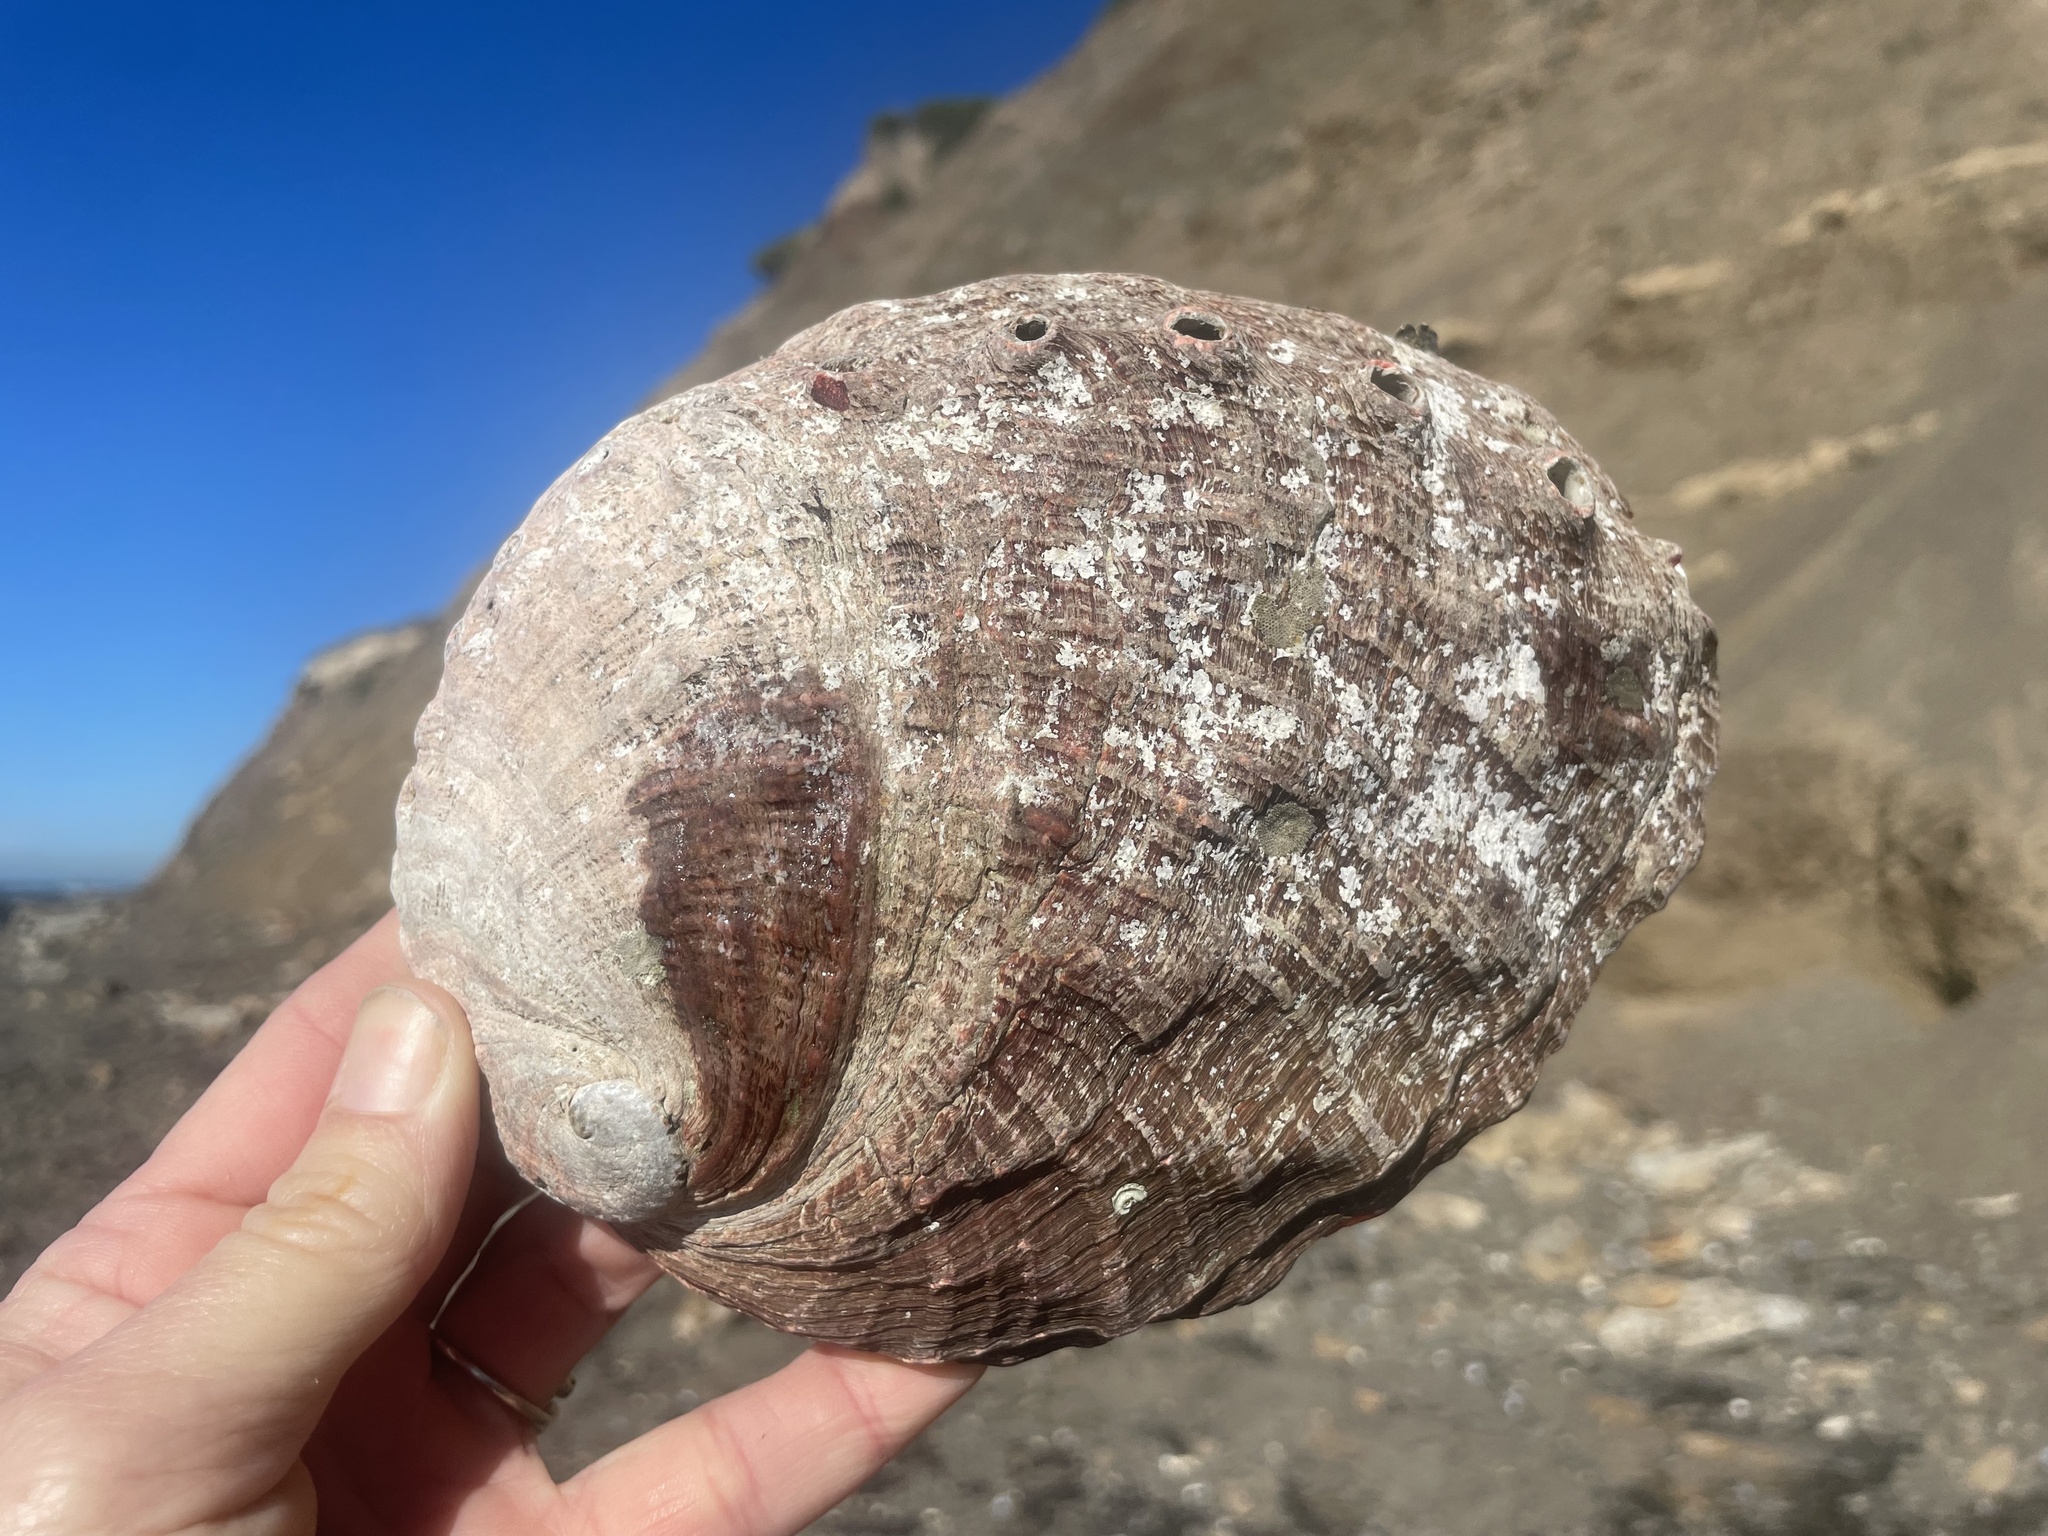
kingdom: Animalia
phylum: Mollusca
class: Gastropoda
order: Lepetellida
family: Haliotidae
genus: Haliotis
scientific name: Haliotis rufescens
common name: Red abalone
